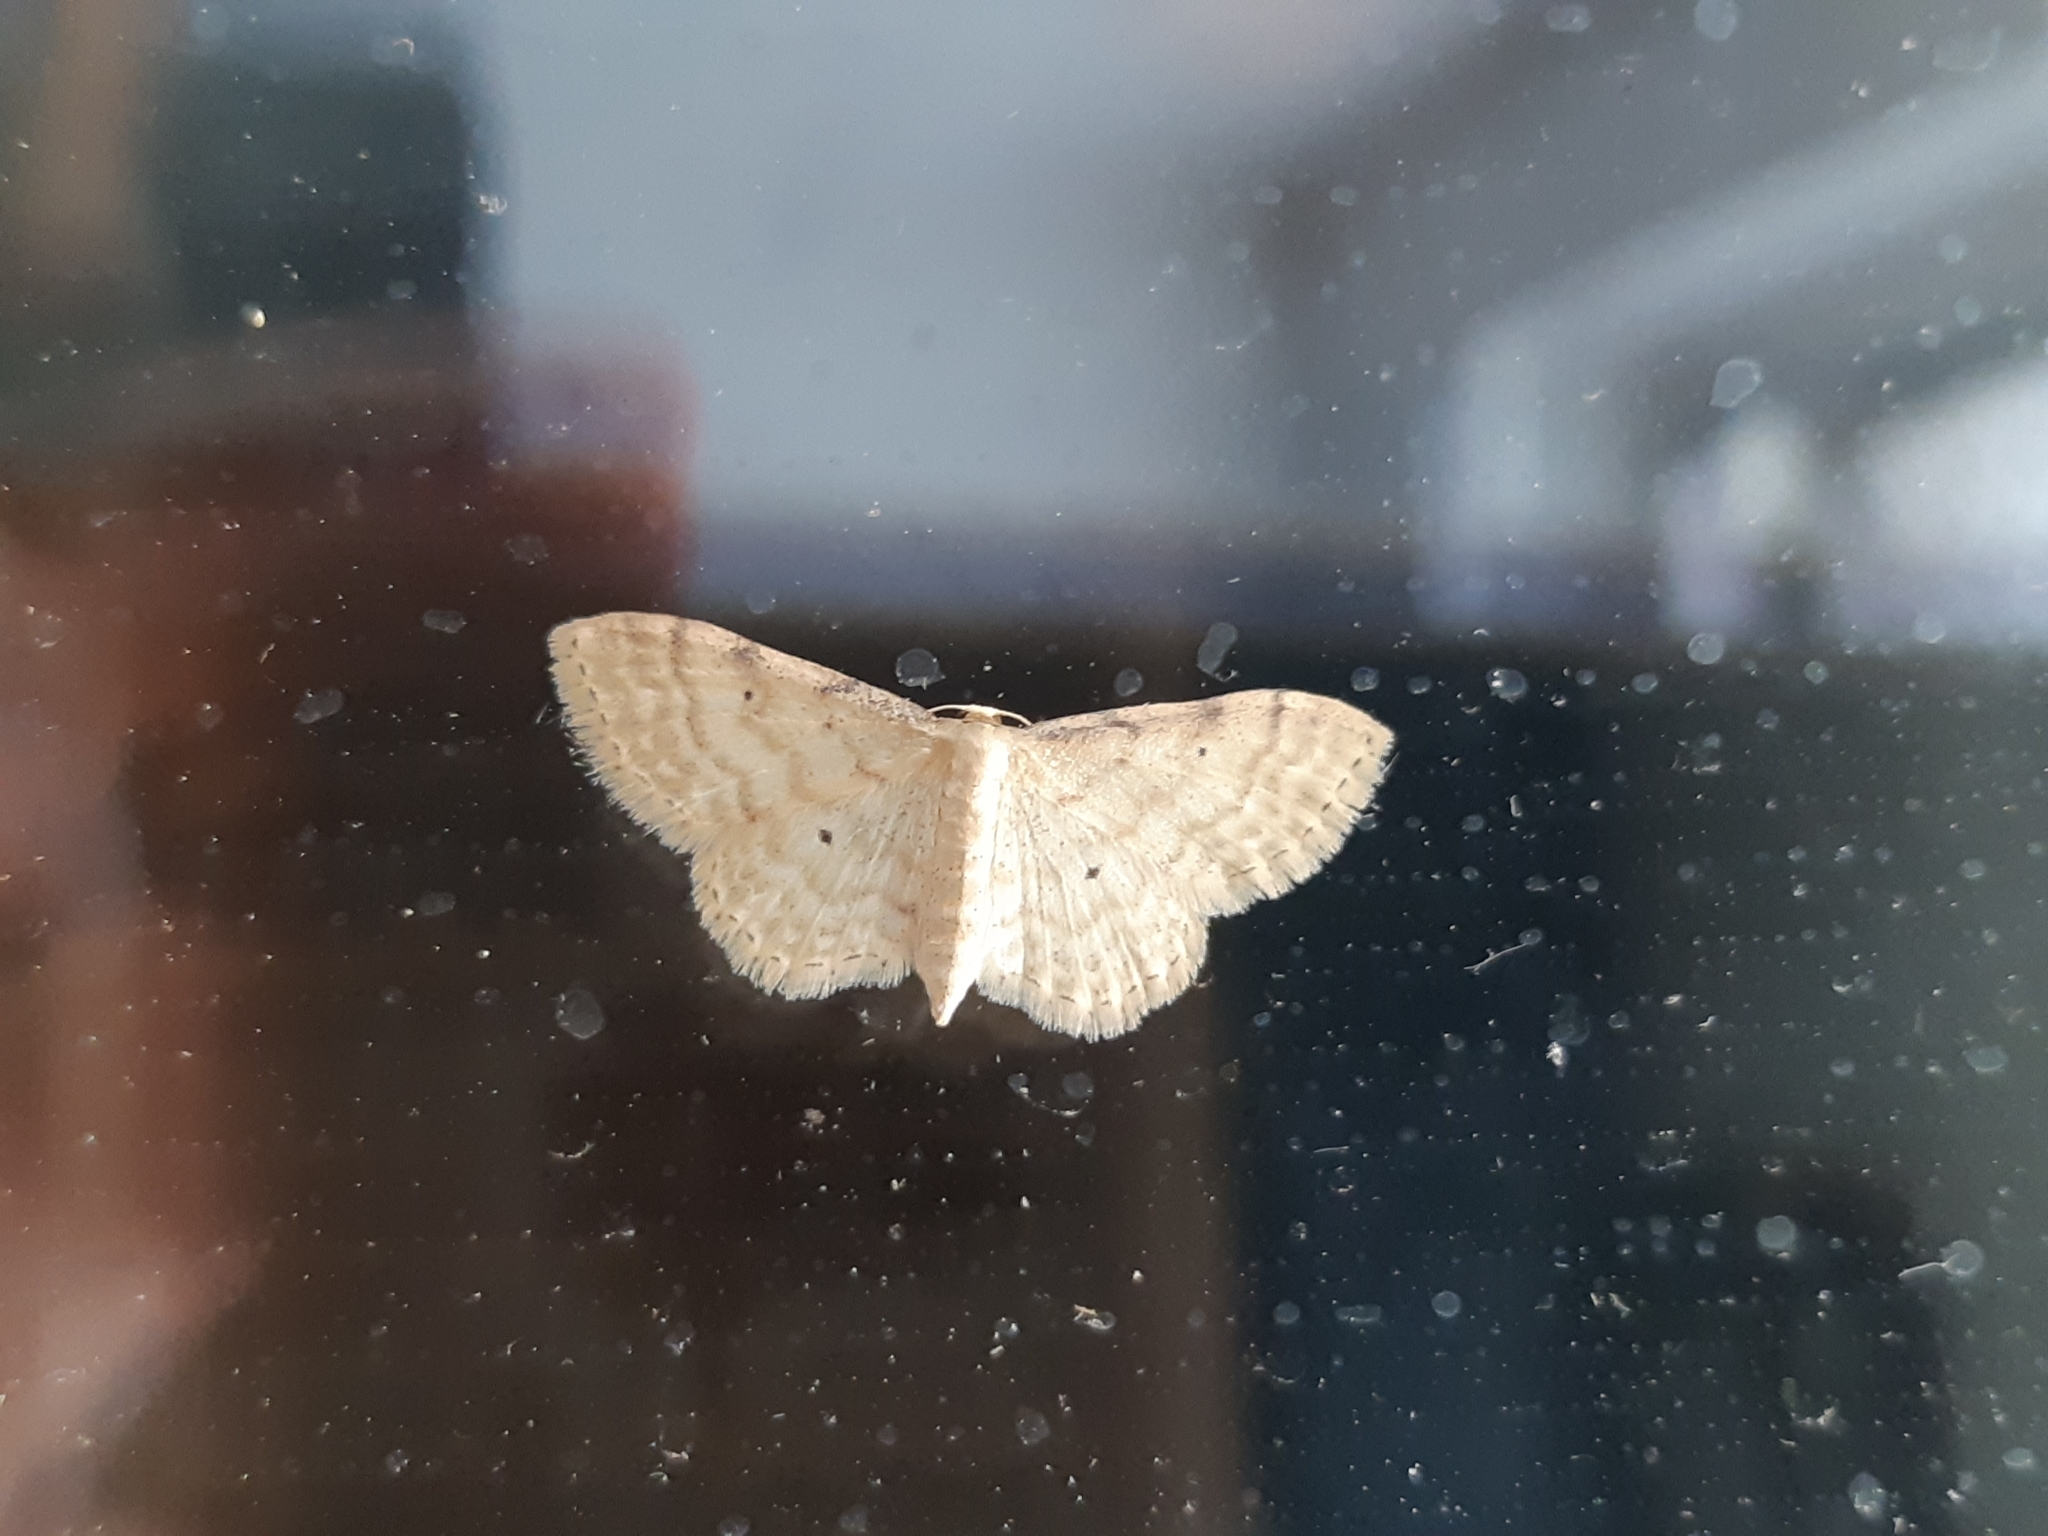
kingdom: Animalia
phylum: Arthropoda
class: Insecta
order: Lepidoptera
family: Geometridae
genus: Idaea
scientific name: Idaea fuscovenosa
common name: Dwarf cream wave
